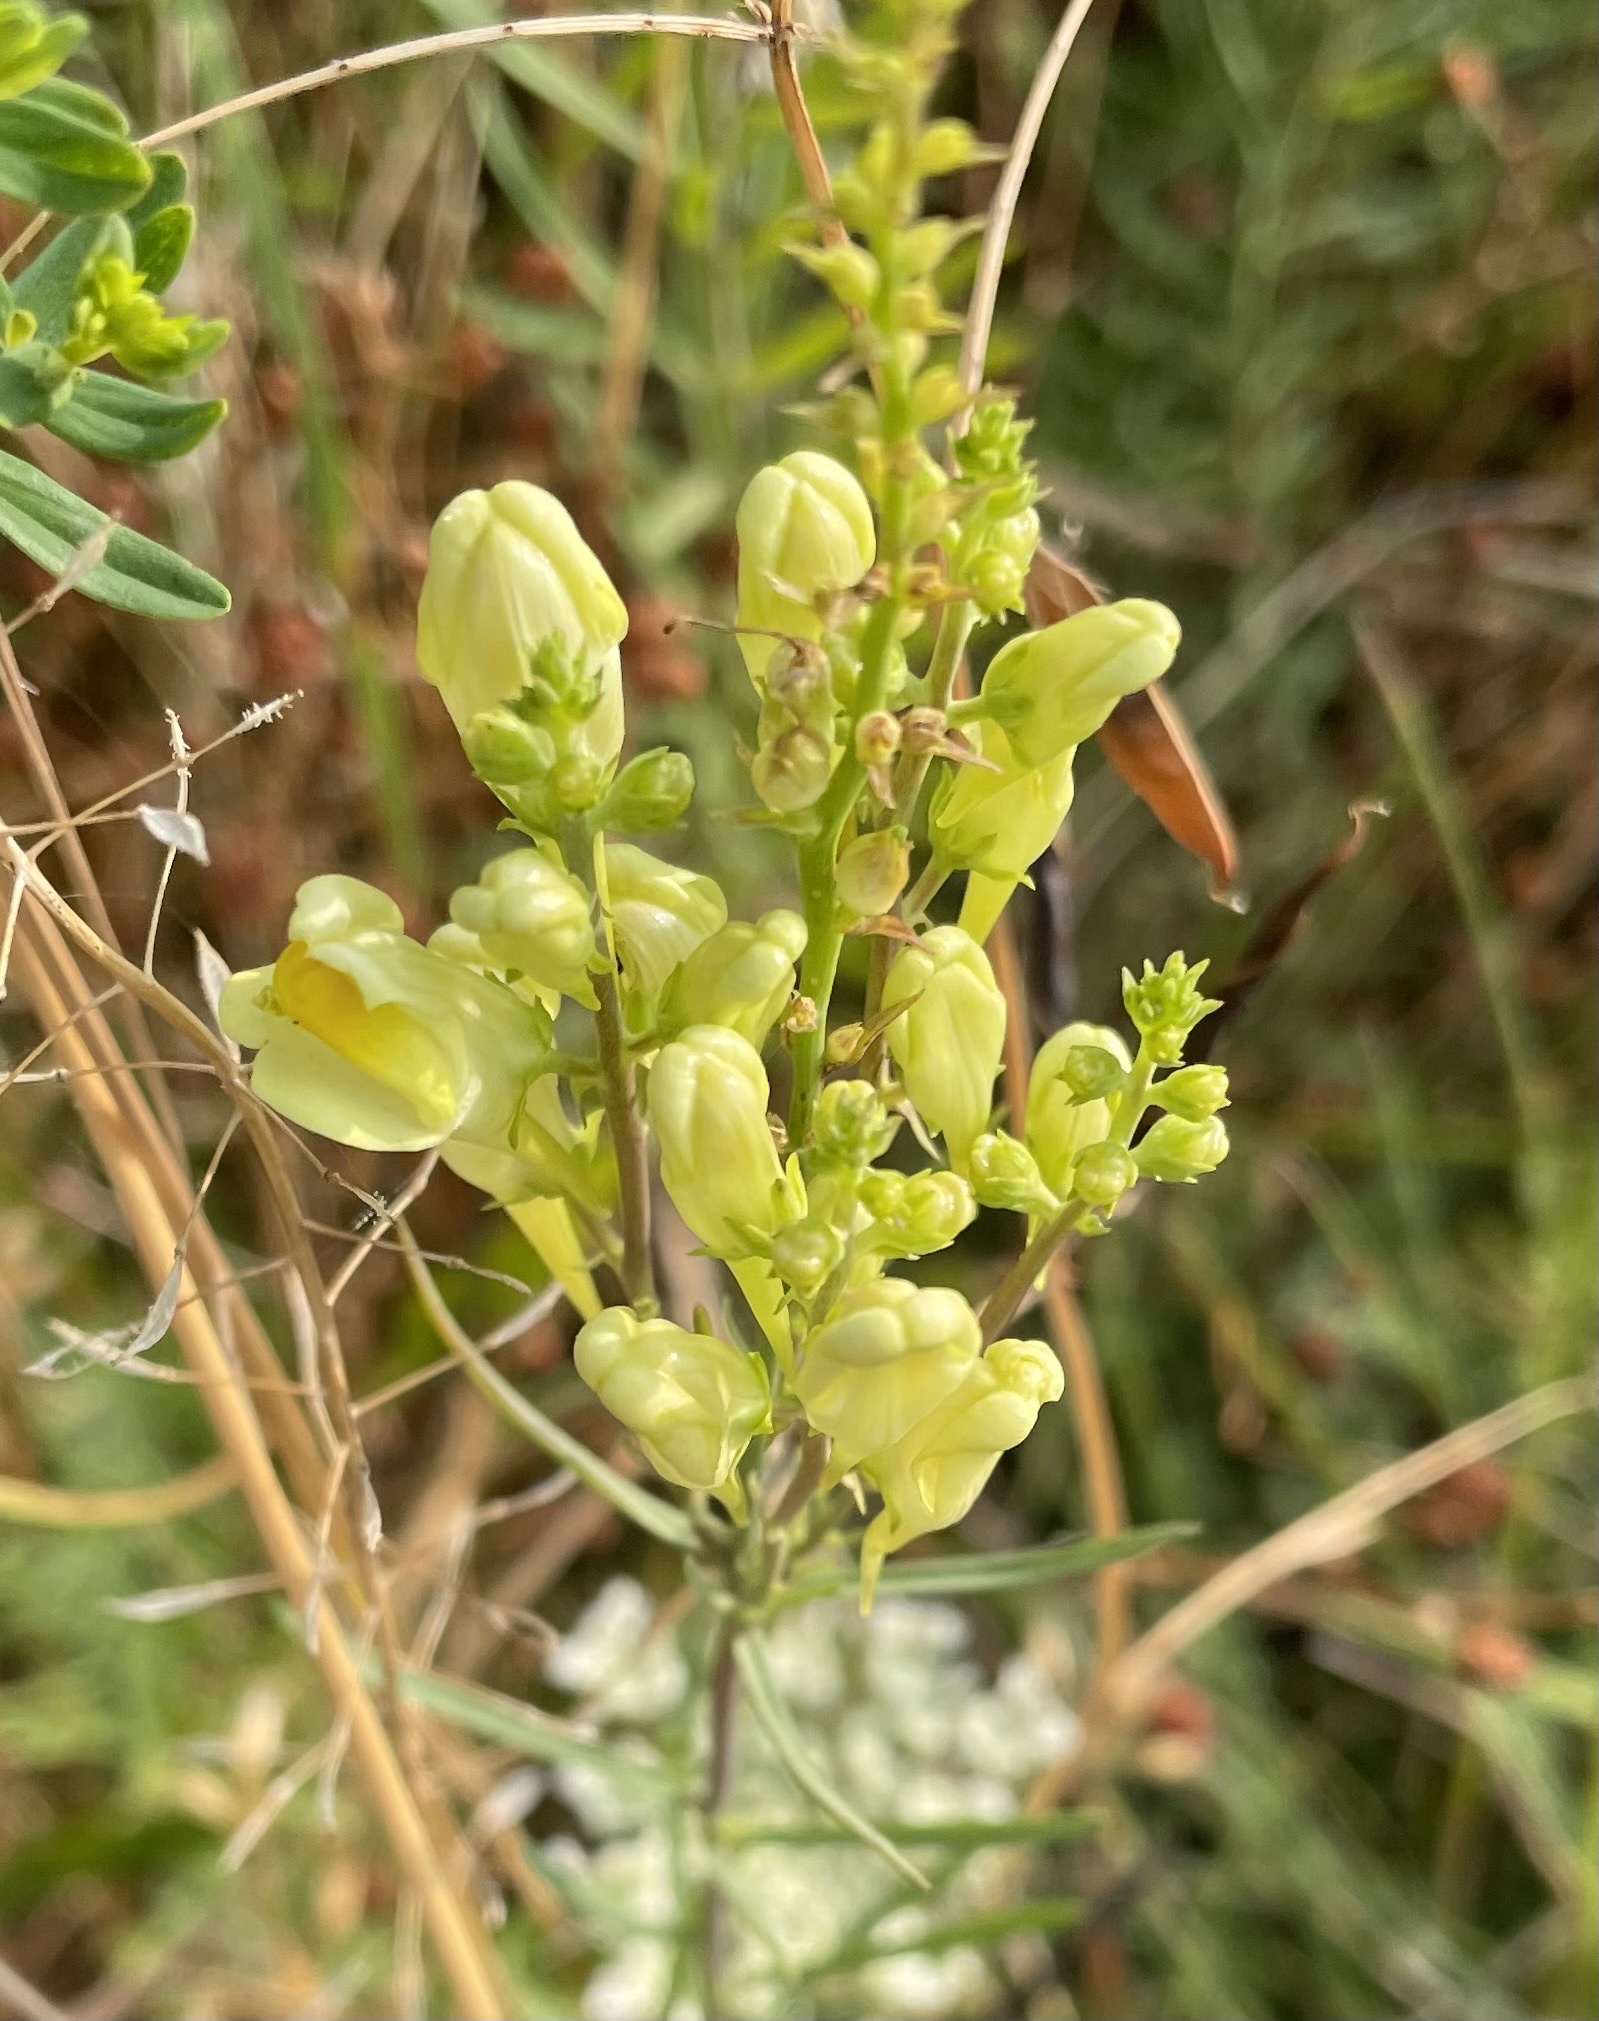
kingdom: Plantae
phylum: Tracheophyta
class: Magnoliopsida
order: Lamiales
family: Plantaginaceae
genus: Linaria
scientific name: Linaria vulgaris
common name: Butter and eggs
